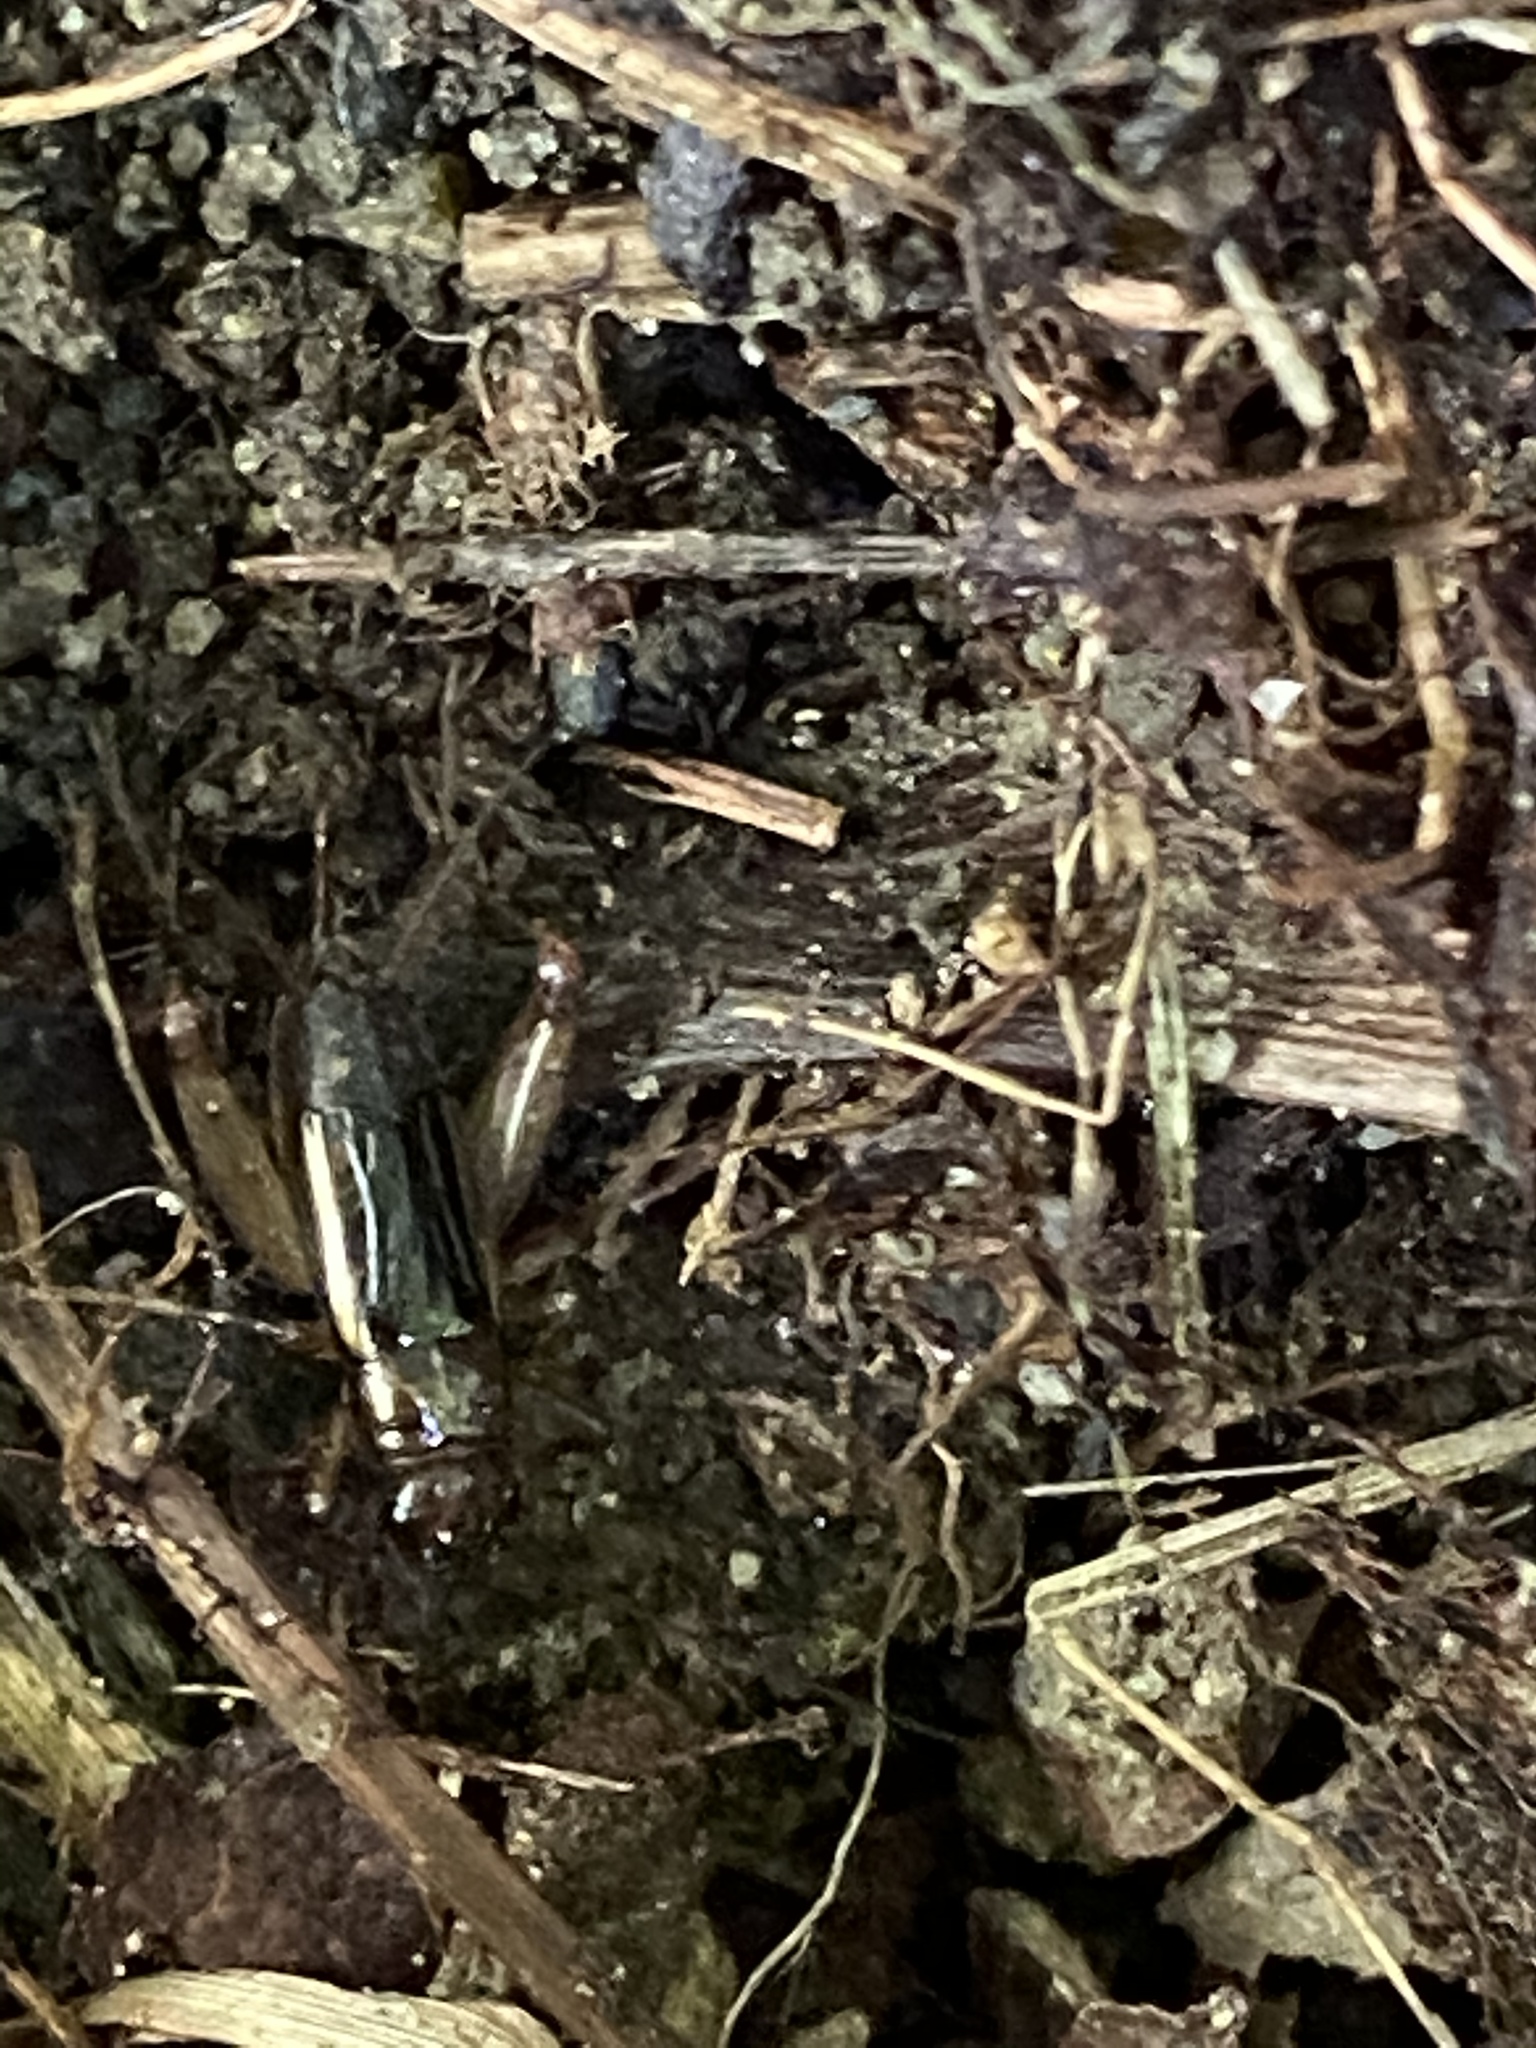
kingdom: Animalia
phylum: Arthropoda
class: Insecta
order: Orthoptera
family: Trigonidiidae
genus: Eunemobius
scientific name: Eunemobius carolinus
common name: Carolina ground cricket
